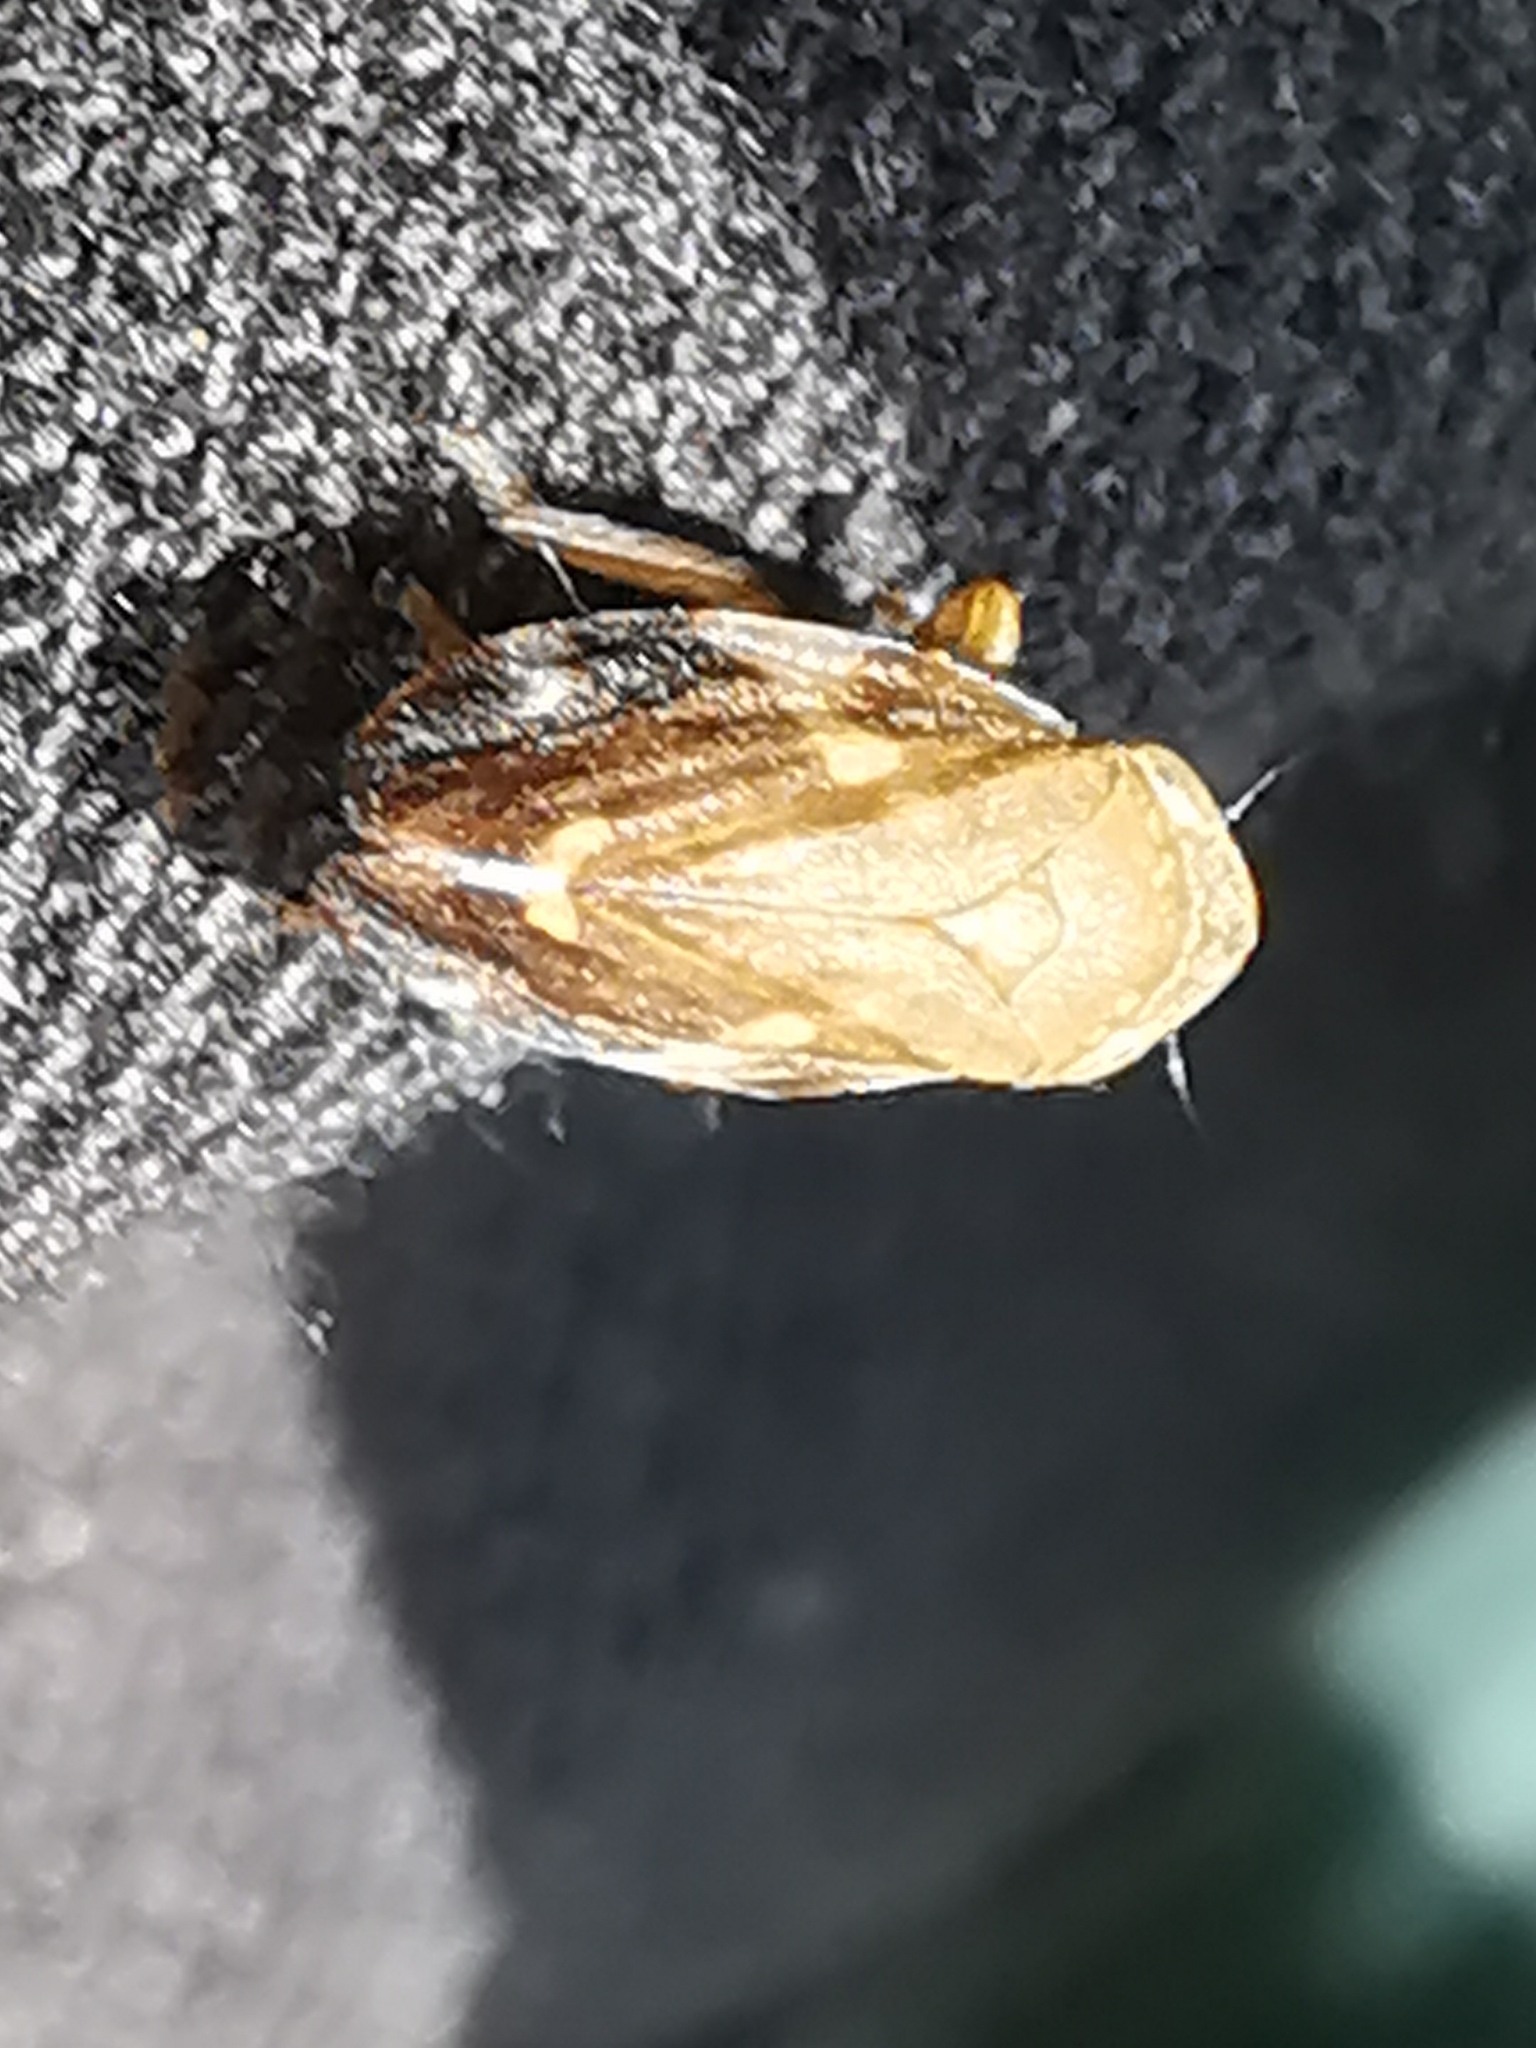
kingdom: Animalia
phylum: Arthropoda
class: Insecta
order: Hemiptera
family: Aphrophoridae
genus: Philaenus
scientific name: Philaenus spumarius
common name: Meadow spittlebug
